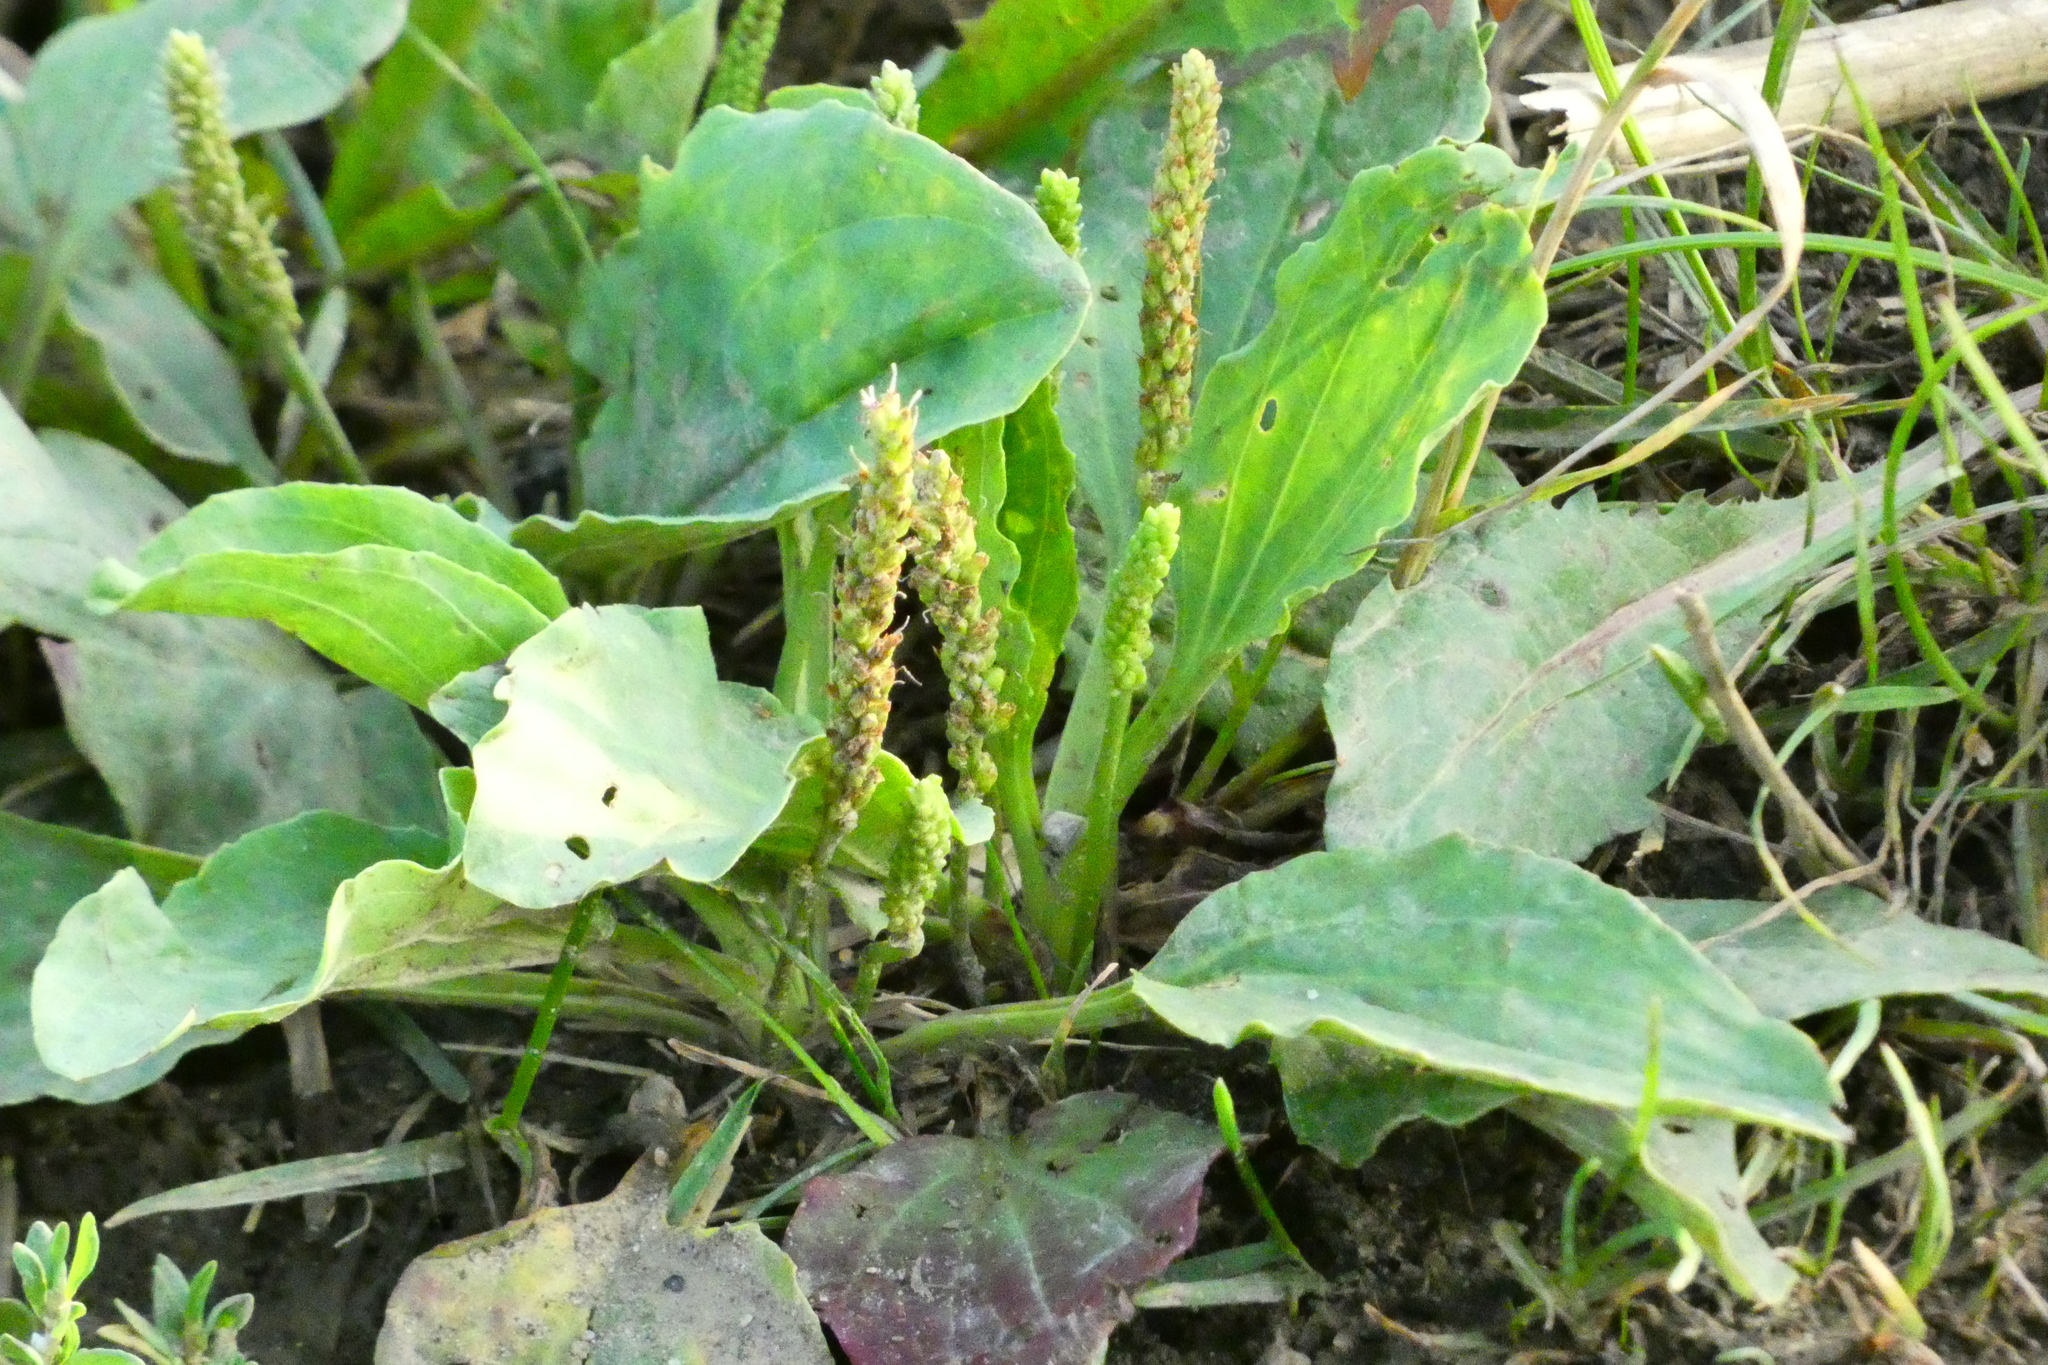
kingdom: Plantae
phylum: Tracheophyta
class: Magnoliopsida
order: Lamiales
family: Plantaginaceae
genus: Plantago
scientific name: Plantago major
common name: Common plantain
